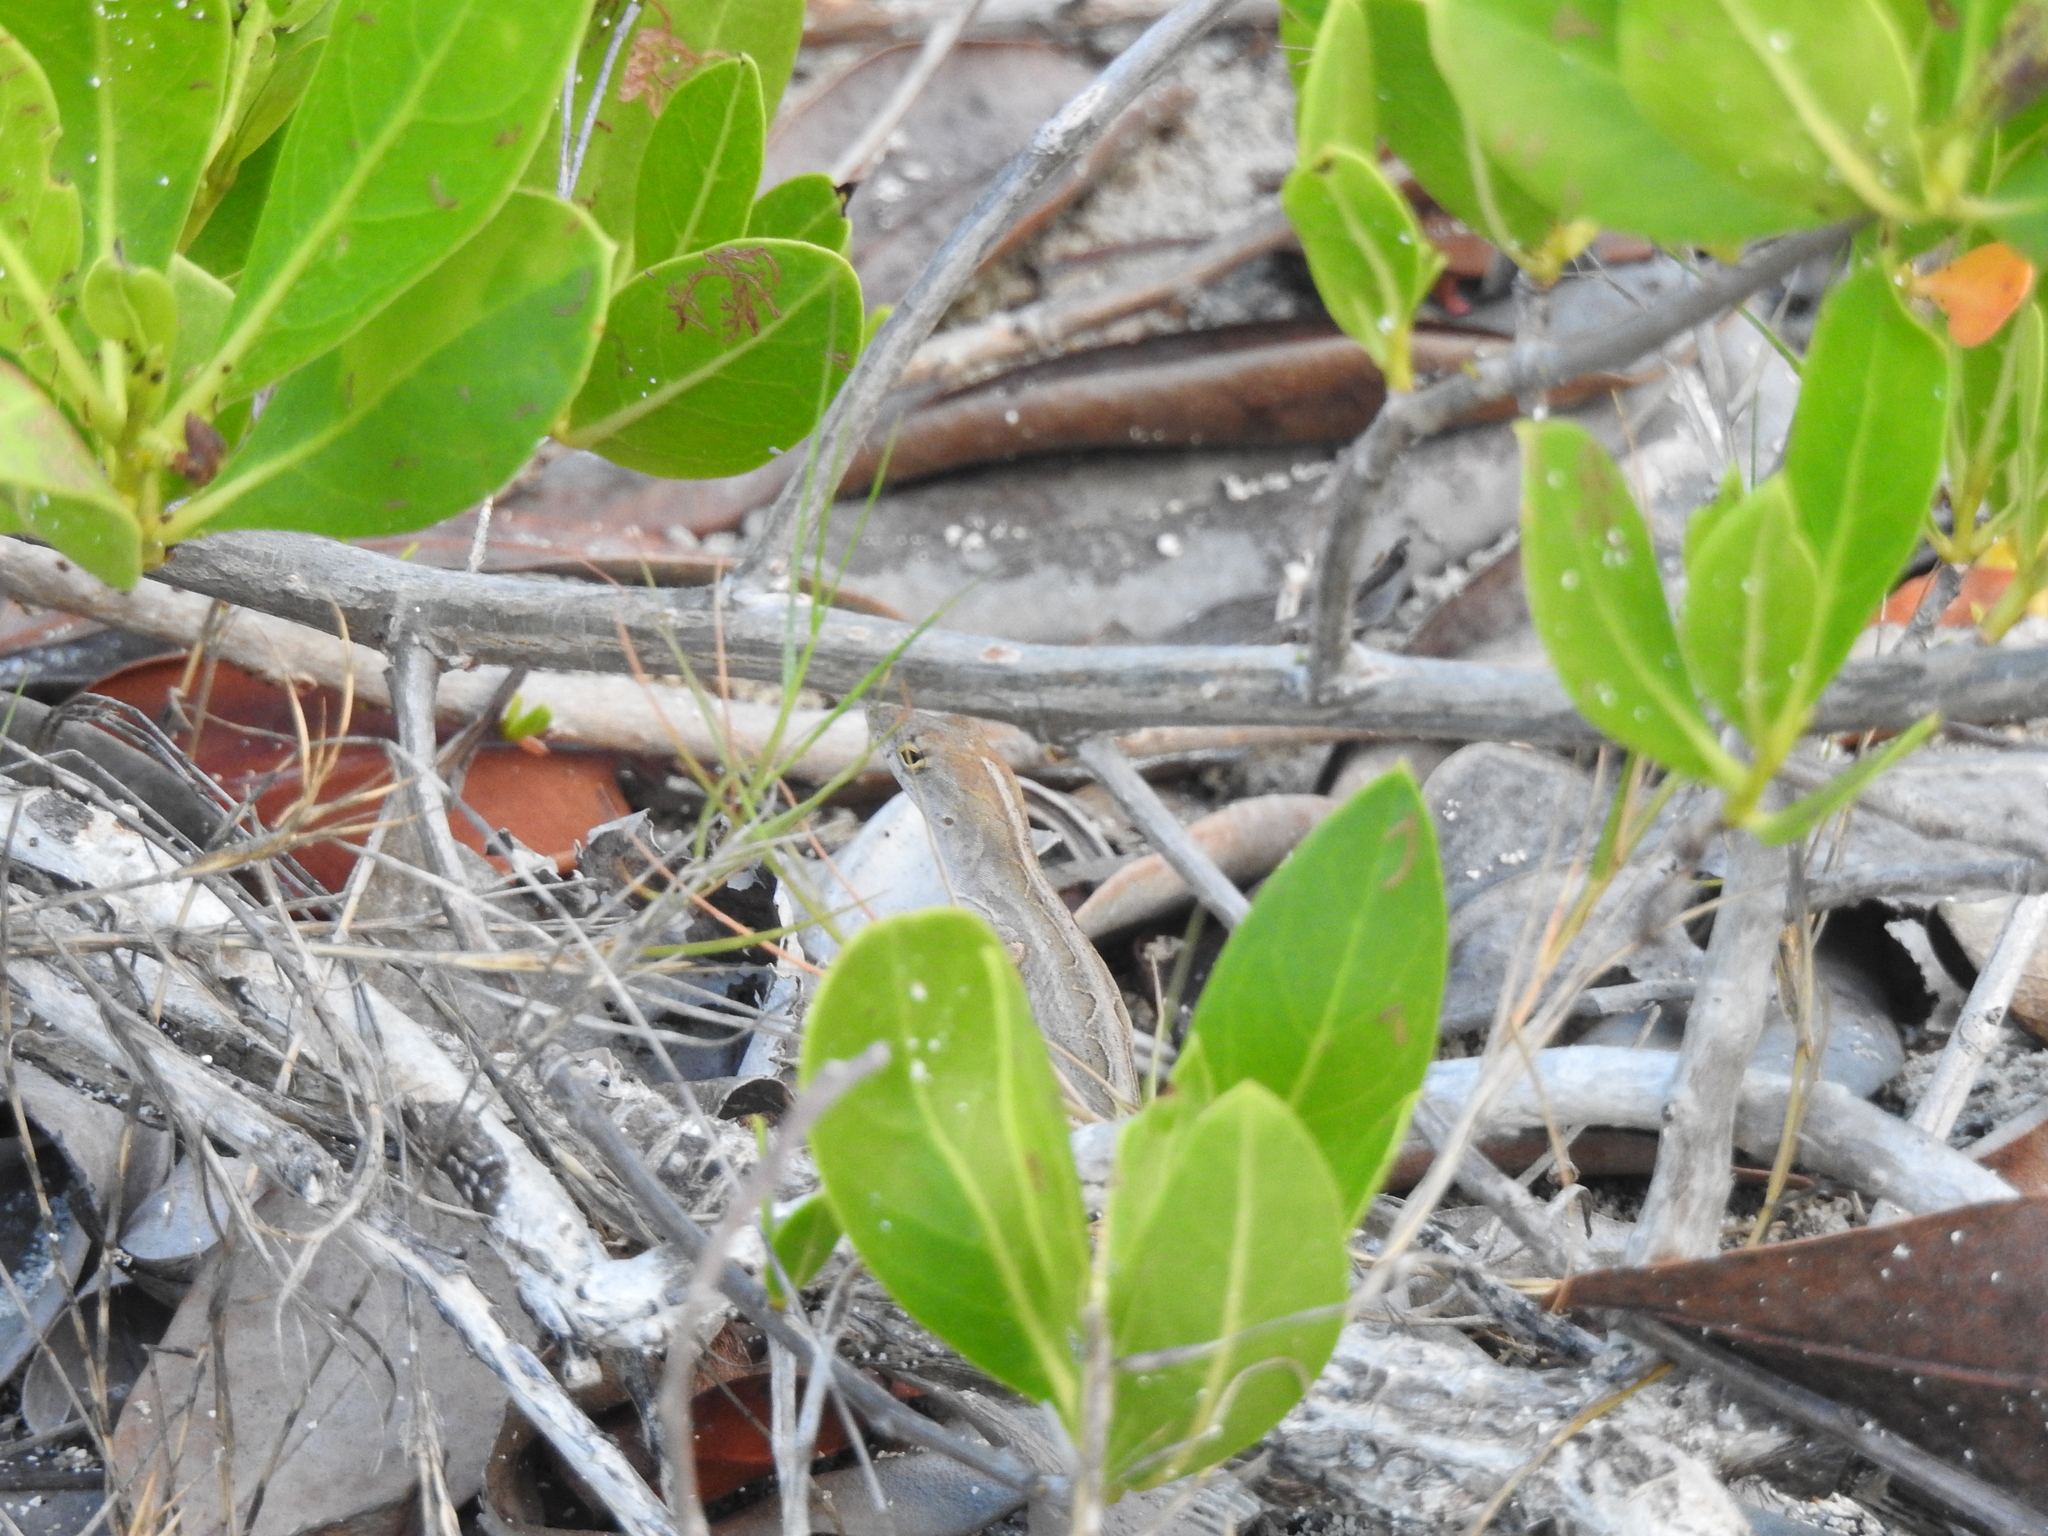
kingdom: Animalia
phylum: Chordata
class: Squamata
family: Dactyloidae
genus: Anolis
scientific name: Anolis sagrei
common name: Brown anole
